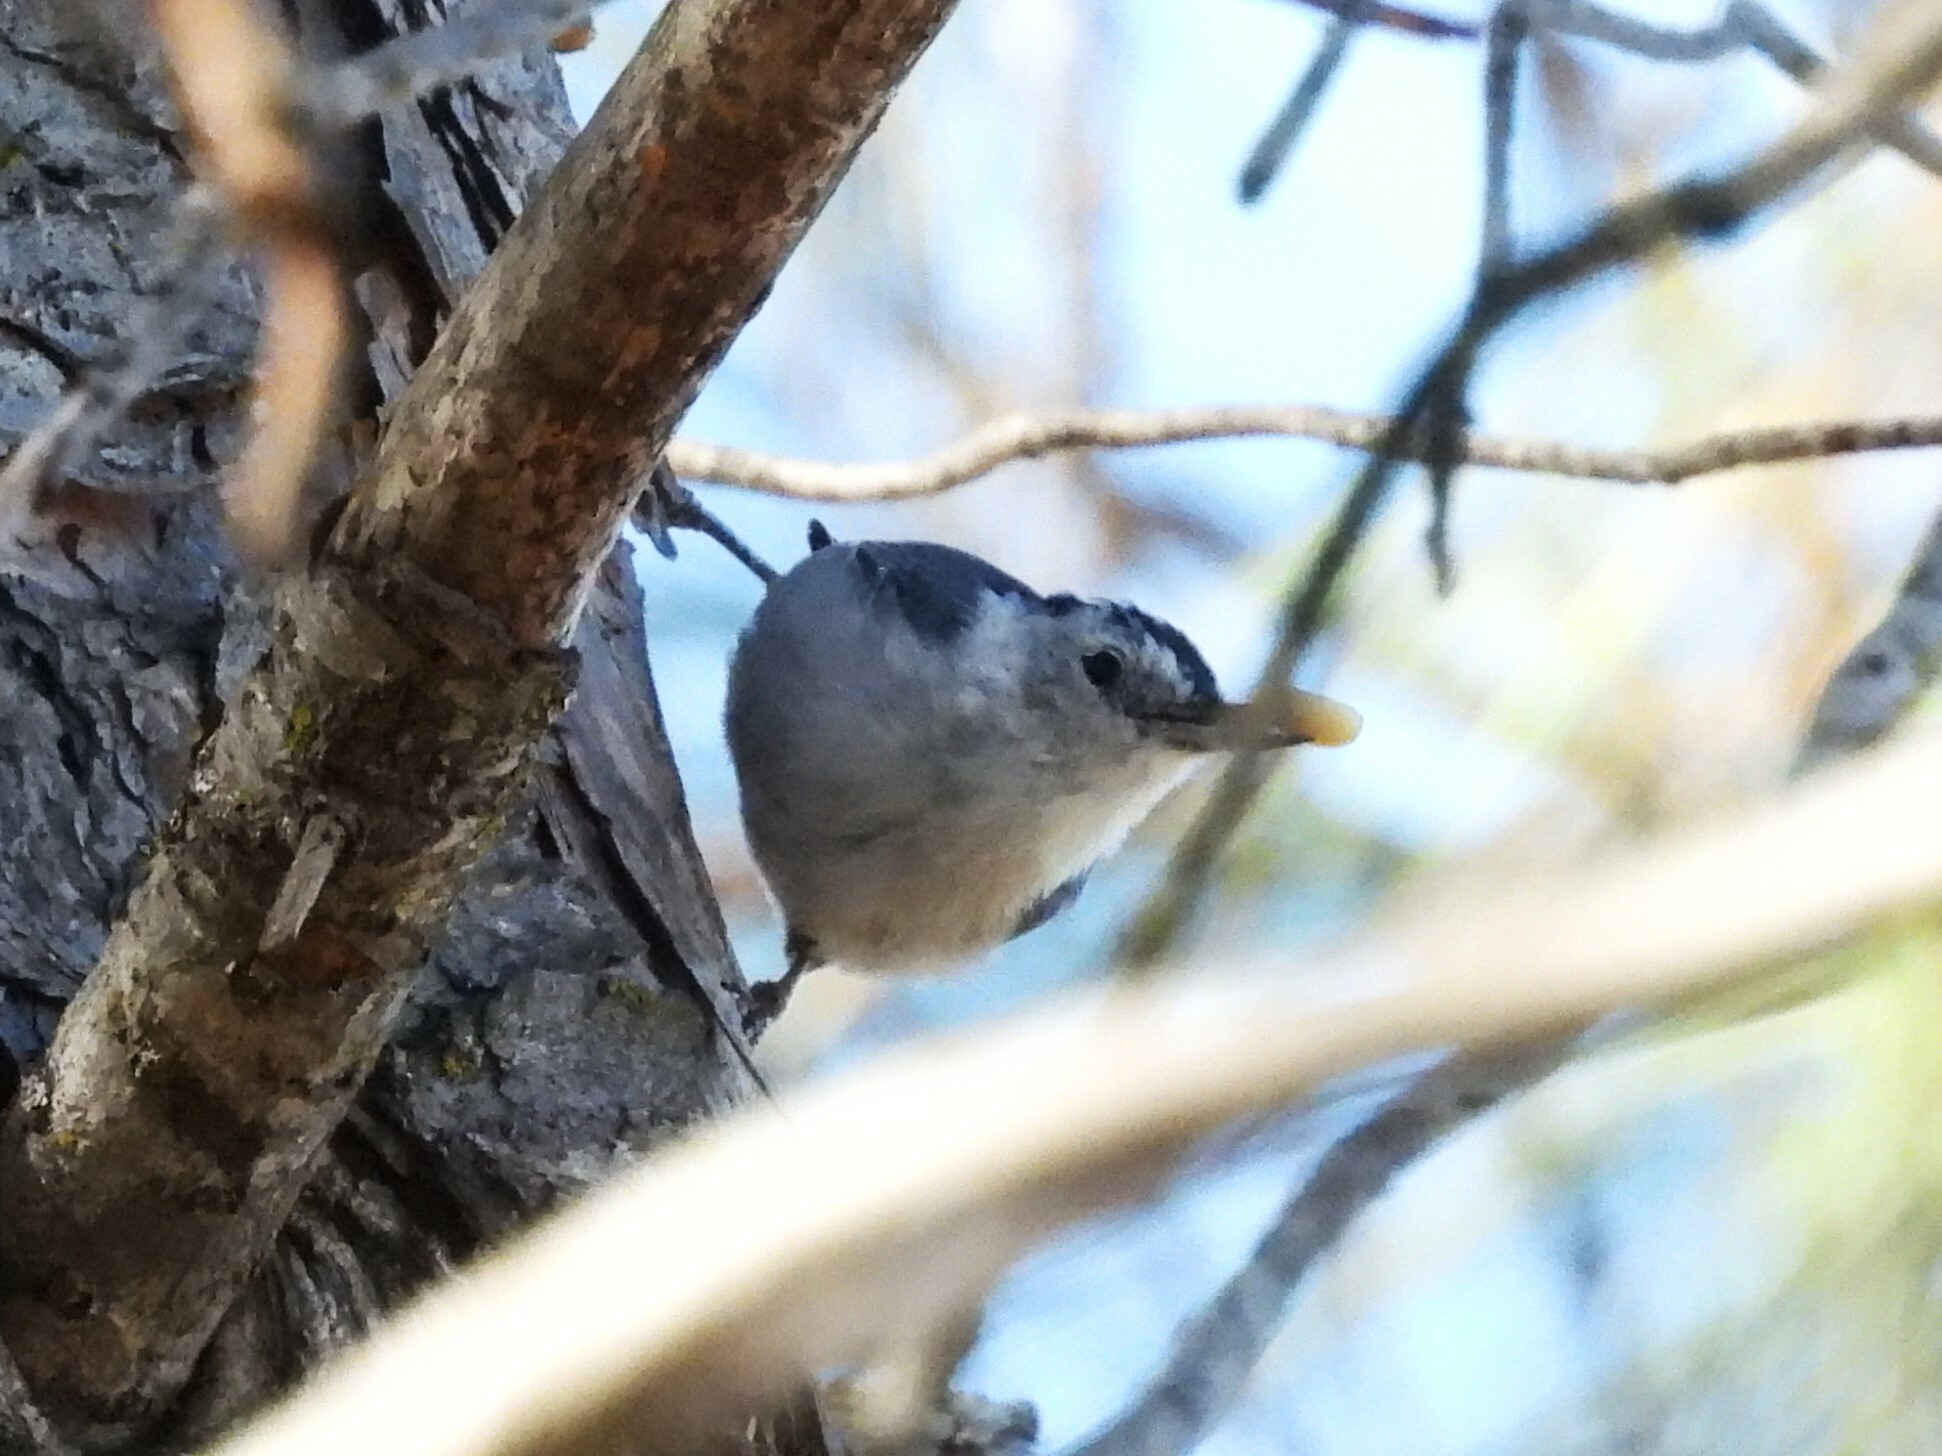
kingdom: Animalia
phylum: Chordata
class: Aves
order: Passeriformes
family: Sittidae
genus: Sitta
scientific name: Sitta carolinensis
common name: White-breasted nuthatch
